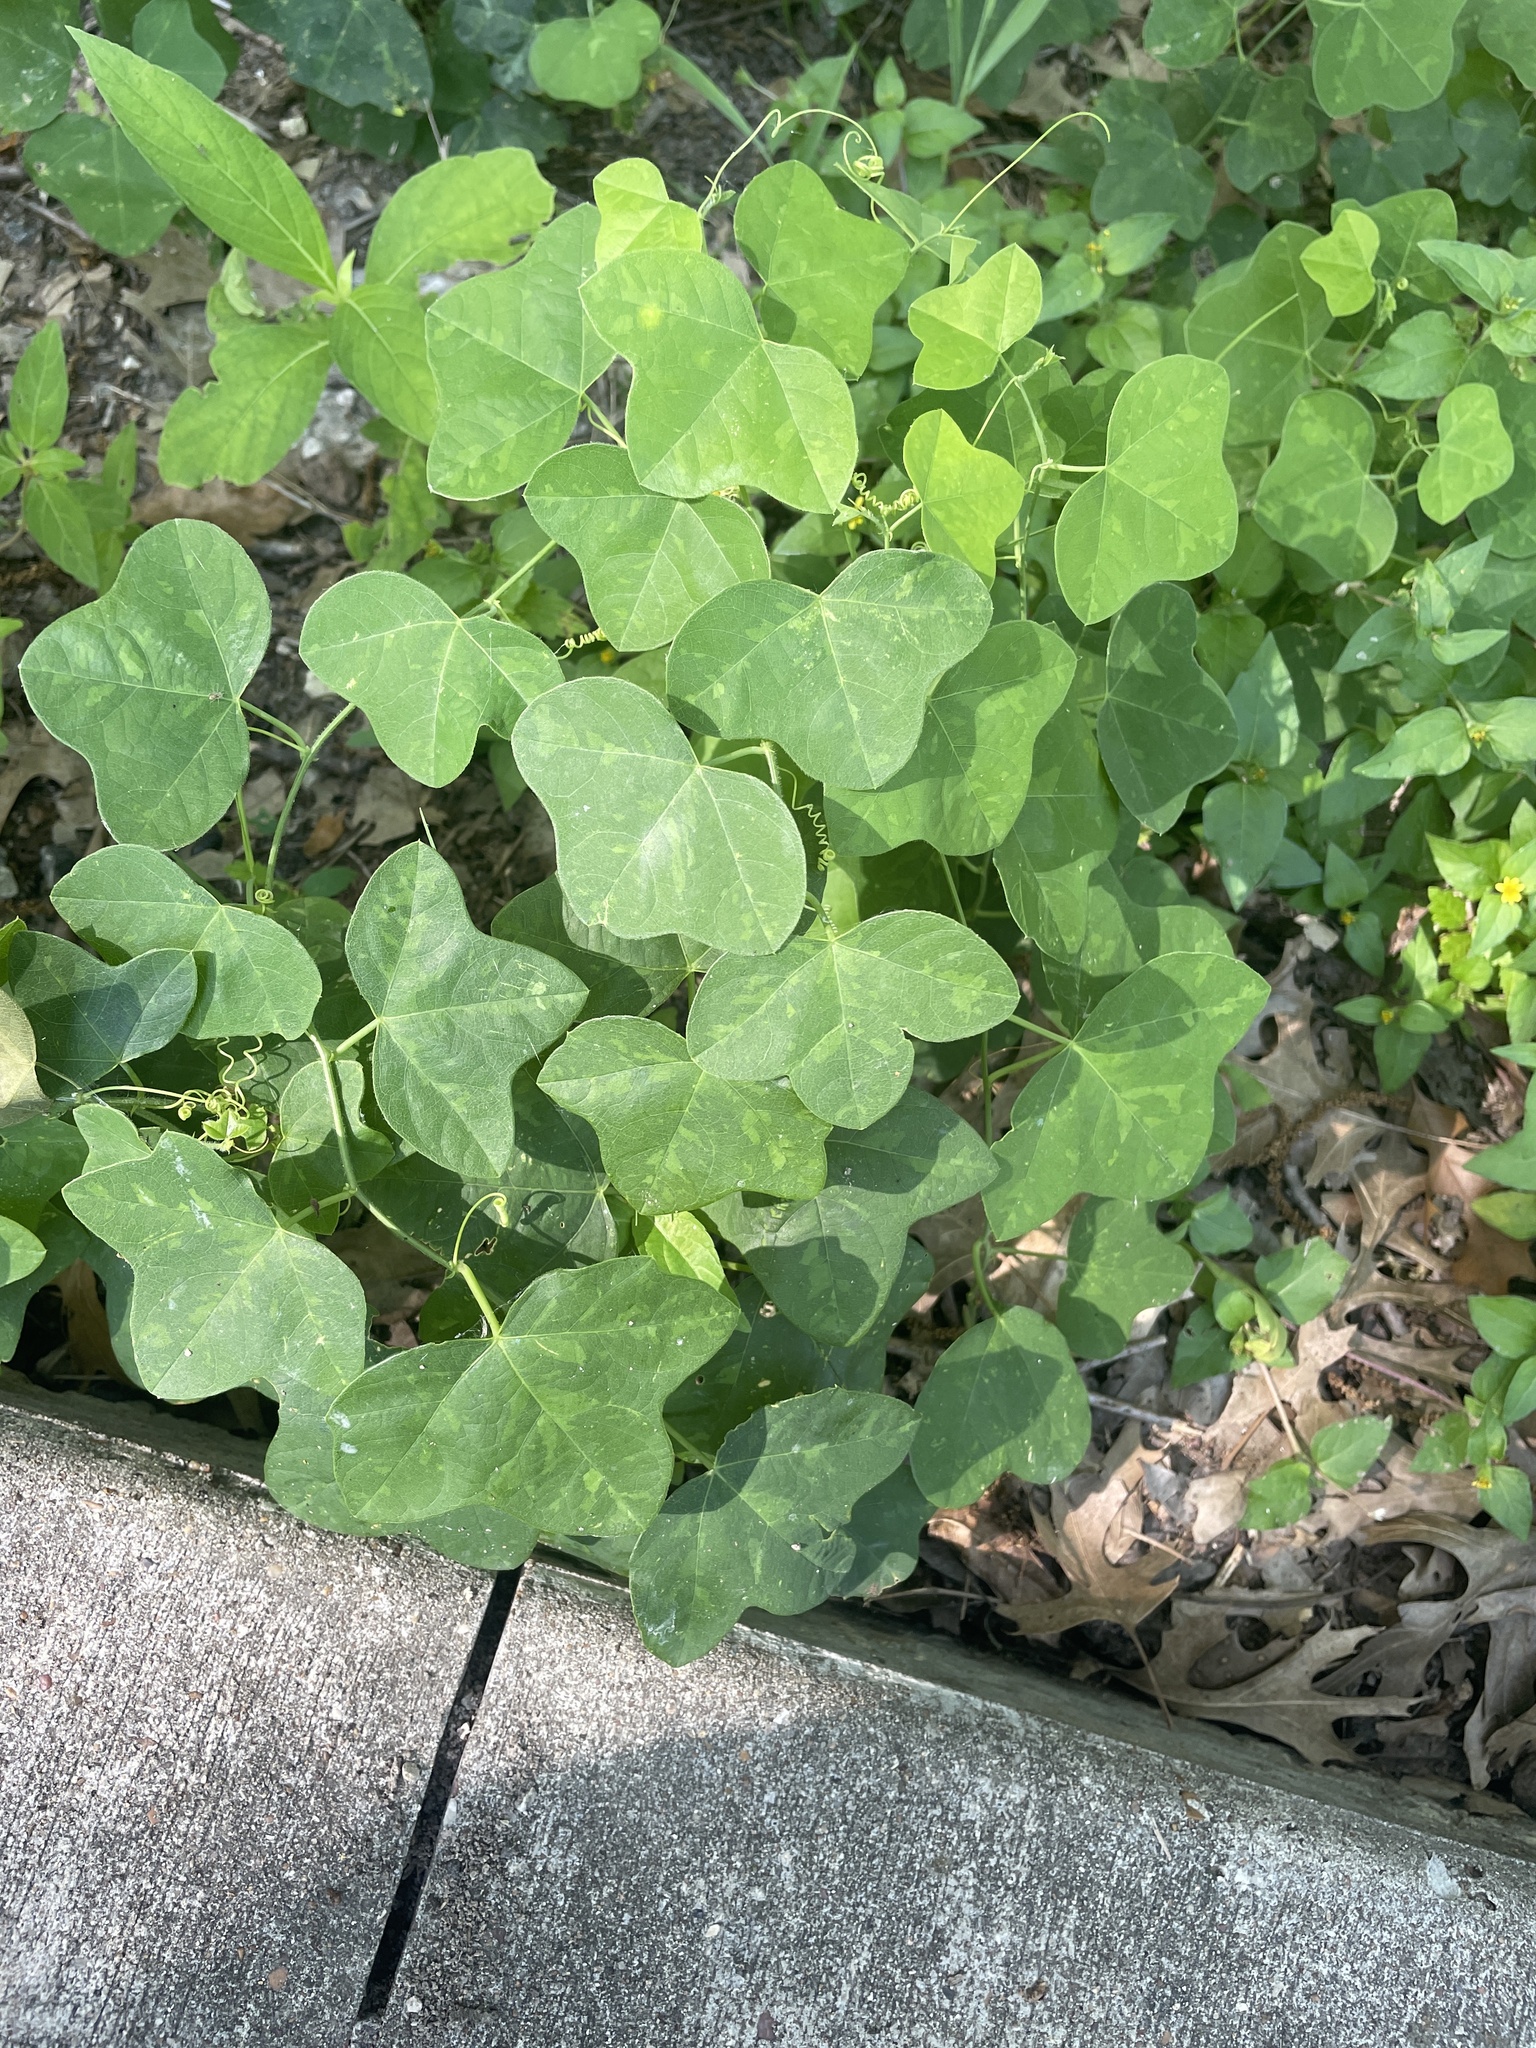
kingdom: Plantae
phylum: Tracheophyta
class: Magnoliopsida
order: Malpighiales
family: Passifloraceae
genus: Passiflora
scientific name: Passiflora lutea
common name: Yellow passionflower
